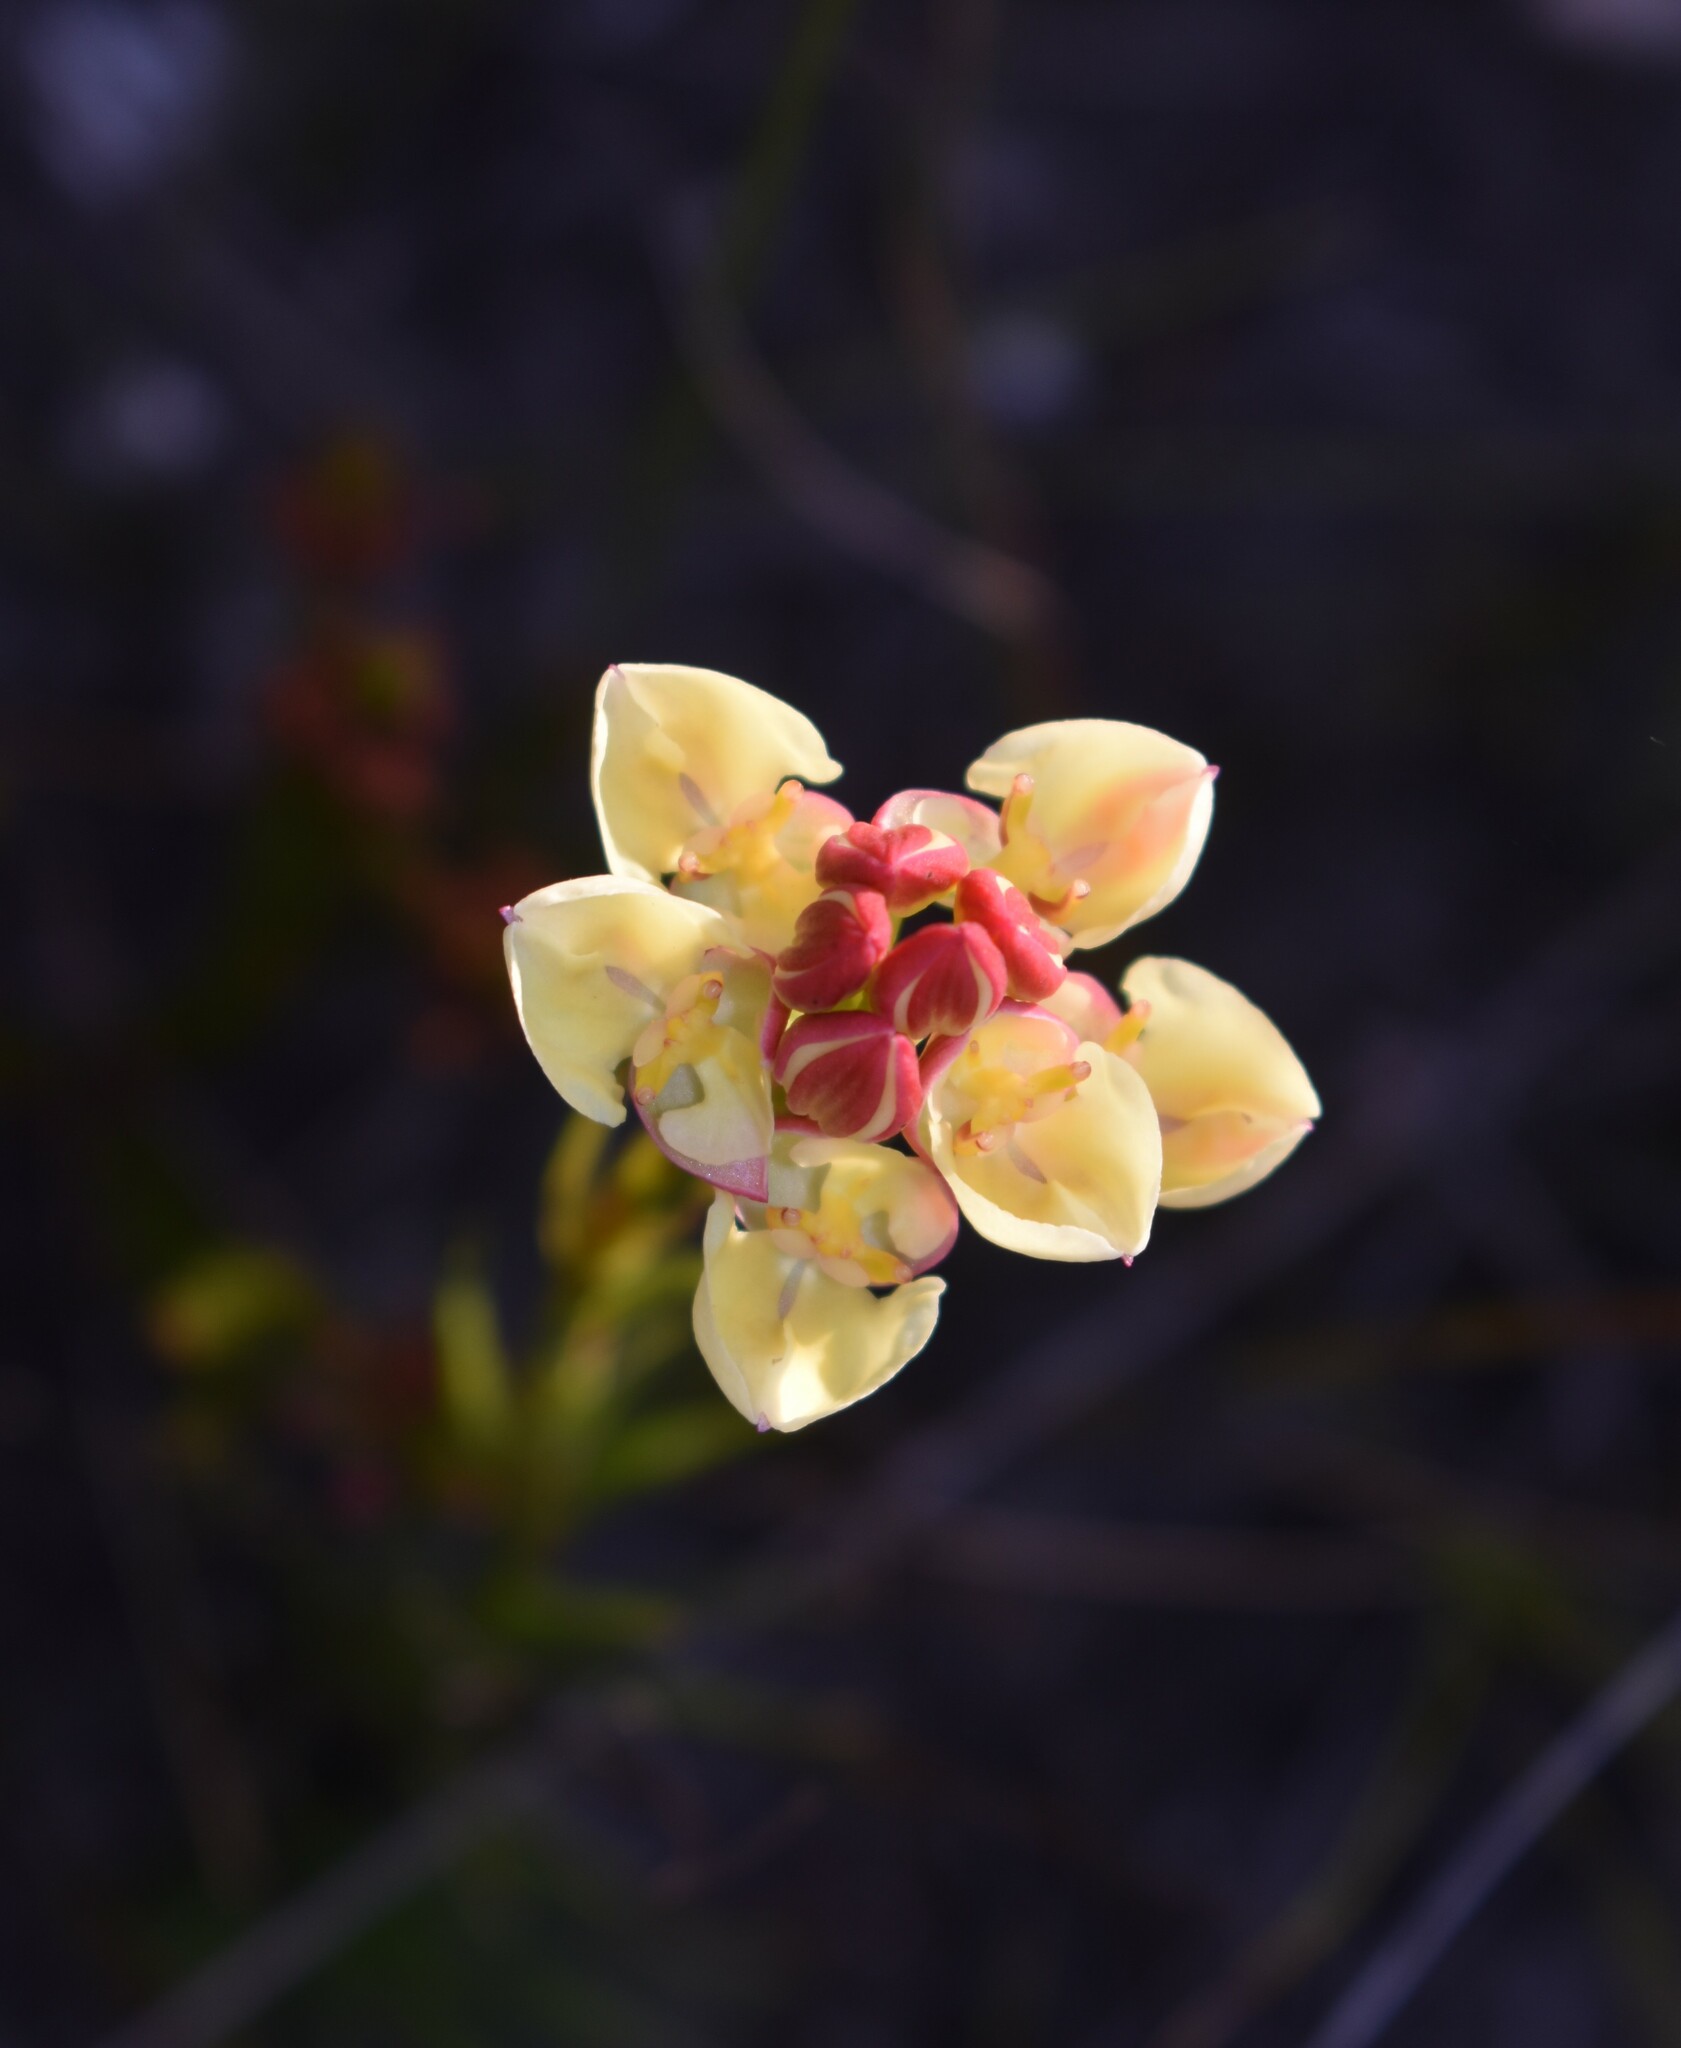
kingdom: Plantae
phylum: Tracheophyta
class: Liliopsida
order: Asparagales
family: Orchidaceae
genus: Ceratandra
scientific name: Ceratandra
